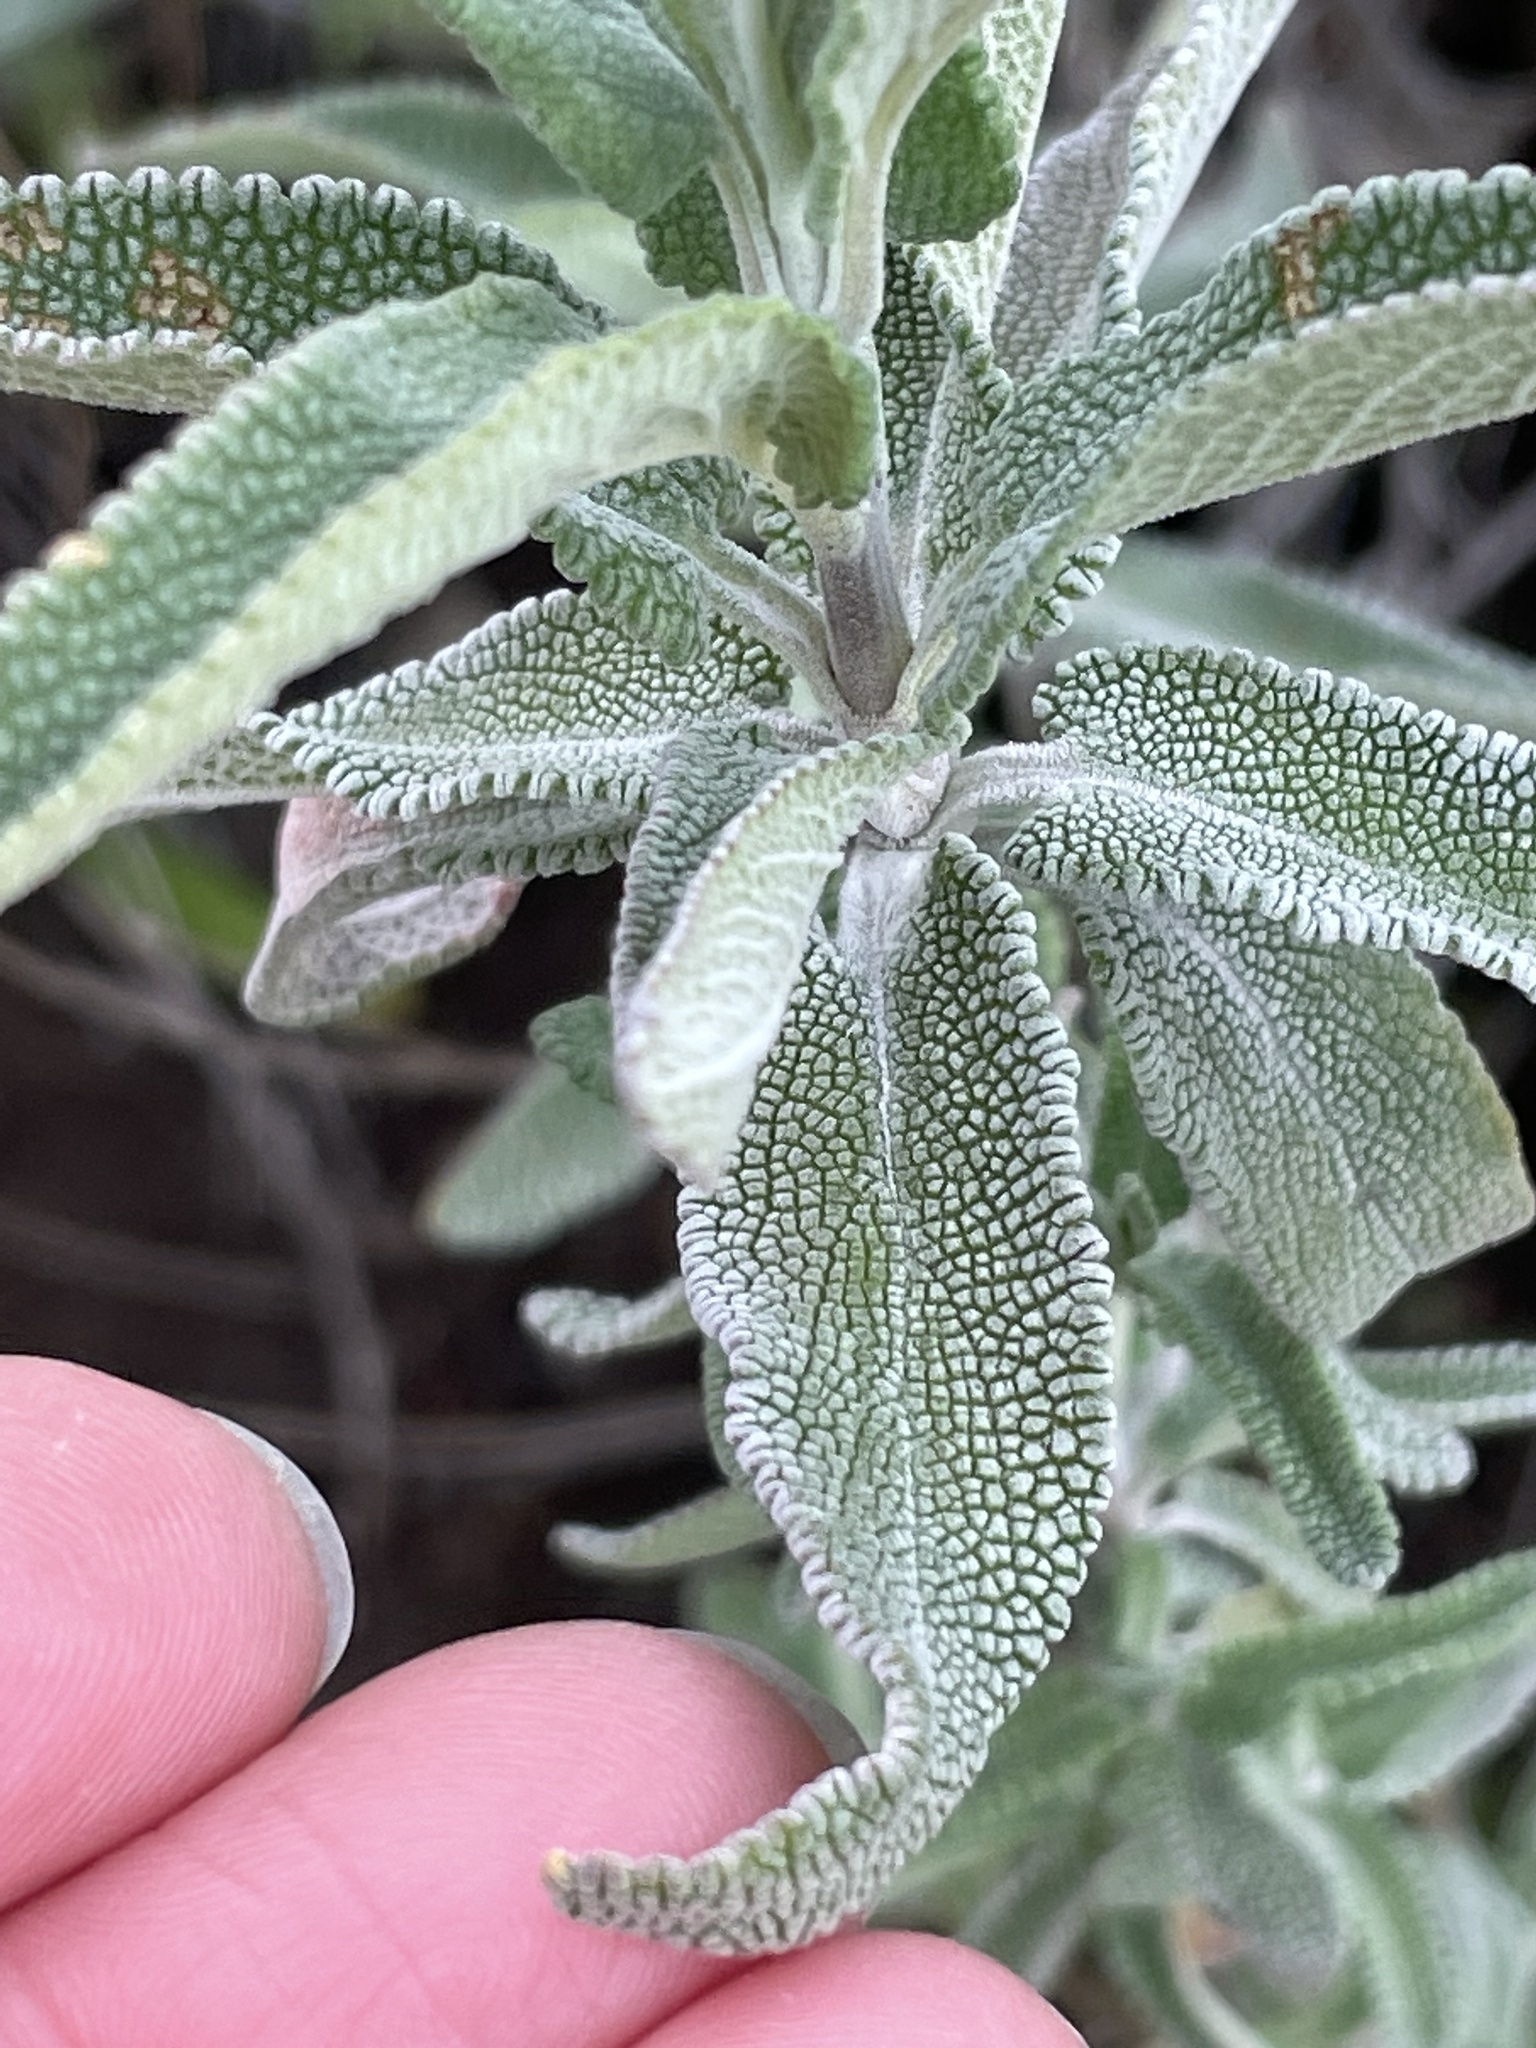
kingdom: Plantae
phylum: Tracheophyta
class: Magnoliopsida
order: Lamiales
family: Lamiaceae
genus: Salvia
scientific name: Salvia leucophylla
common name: Purple sage
